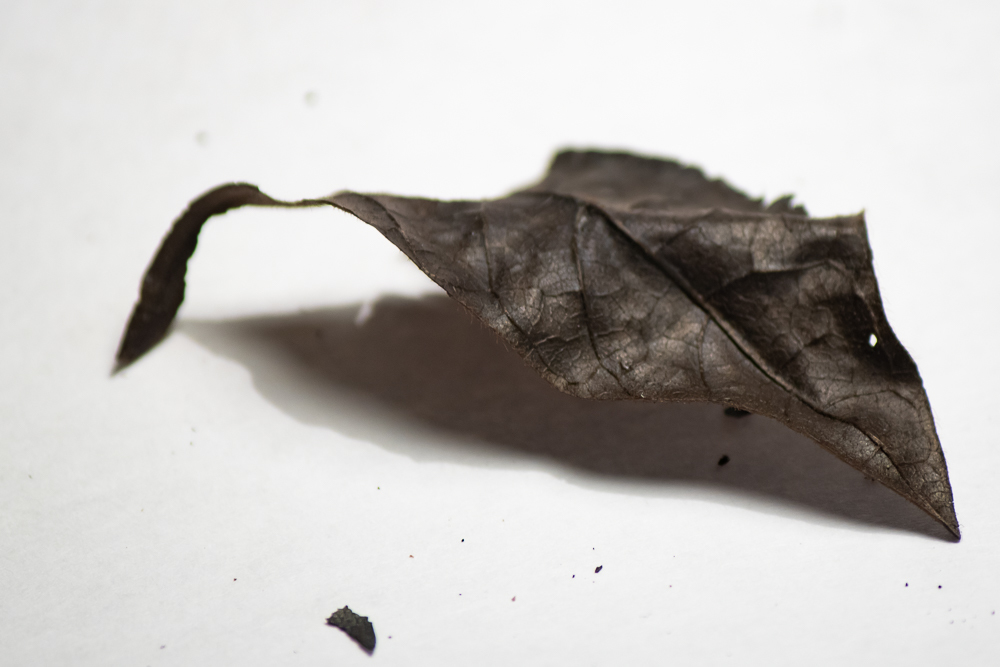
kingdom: Plantae
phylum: Tracheophyta
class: Magnoliopsida
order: Sapindales
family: Sapindaceae
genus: Acer
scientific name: Acer macrophyllum
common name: Oregon maple
